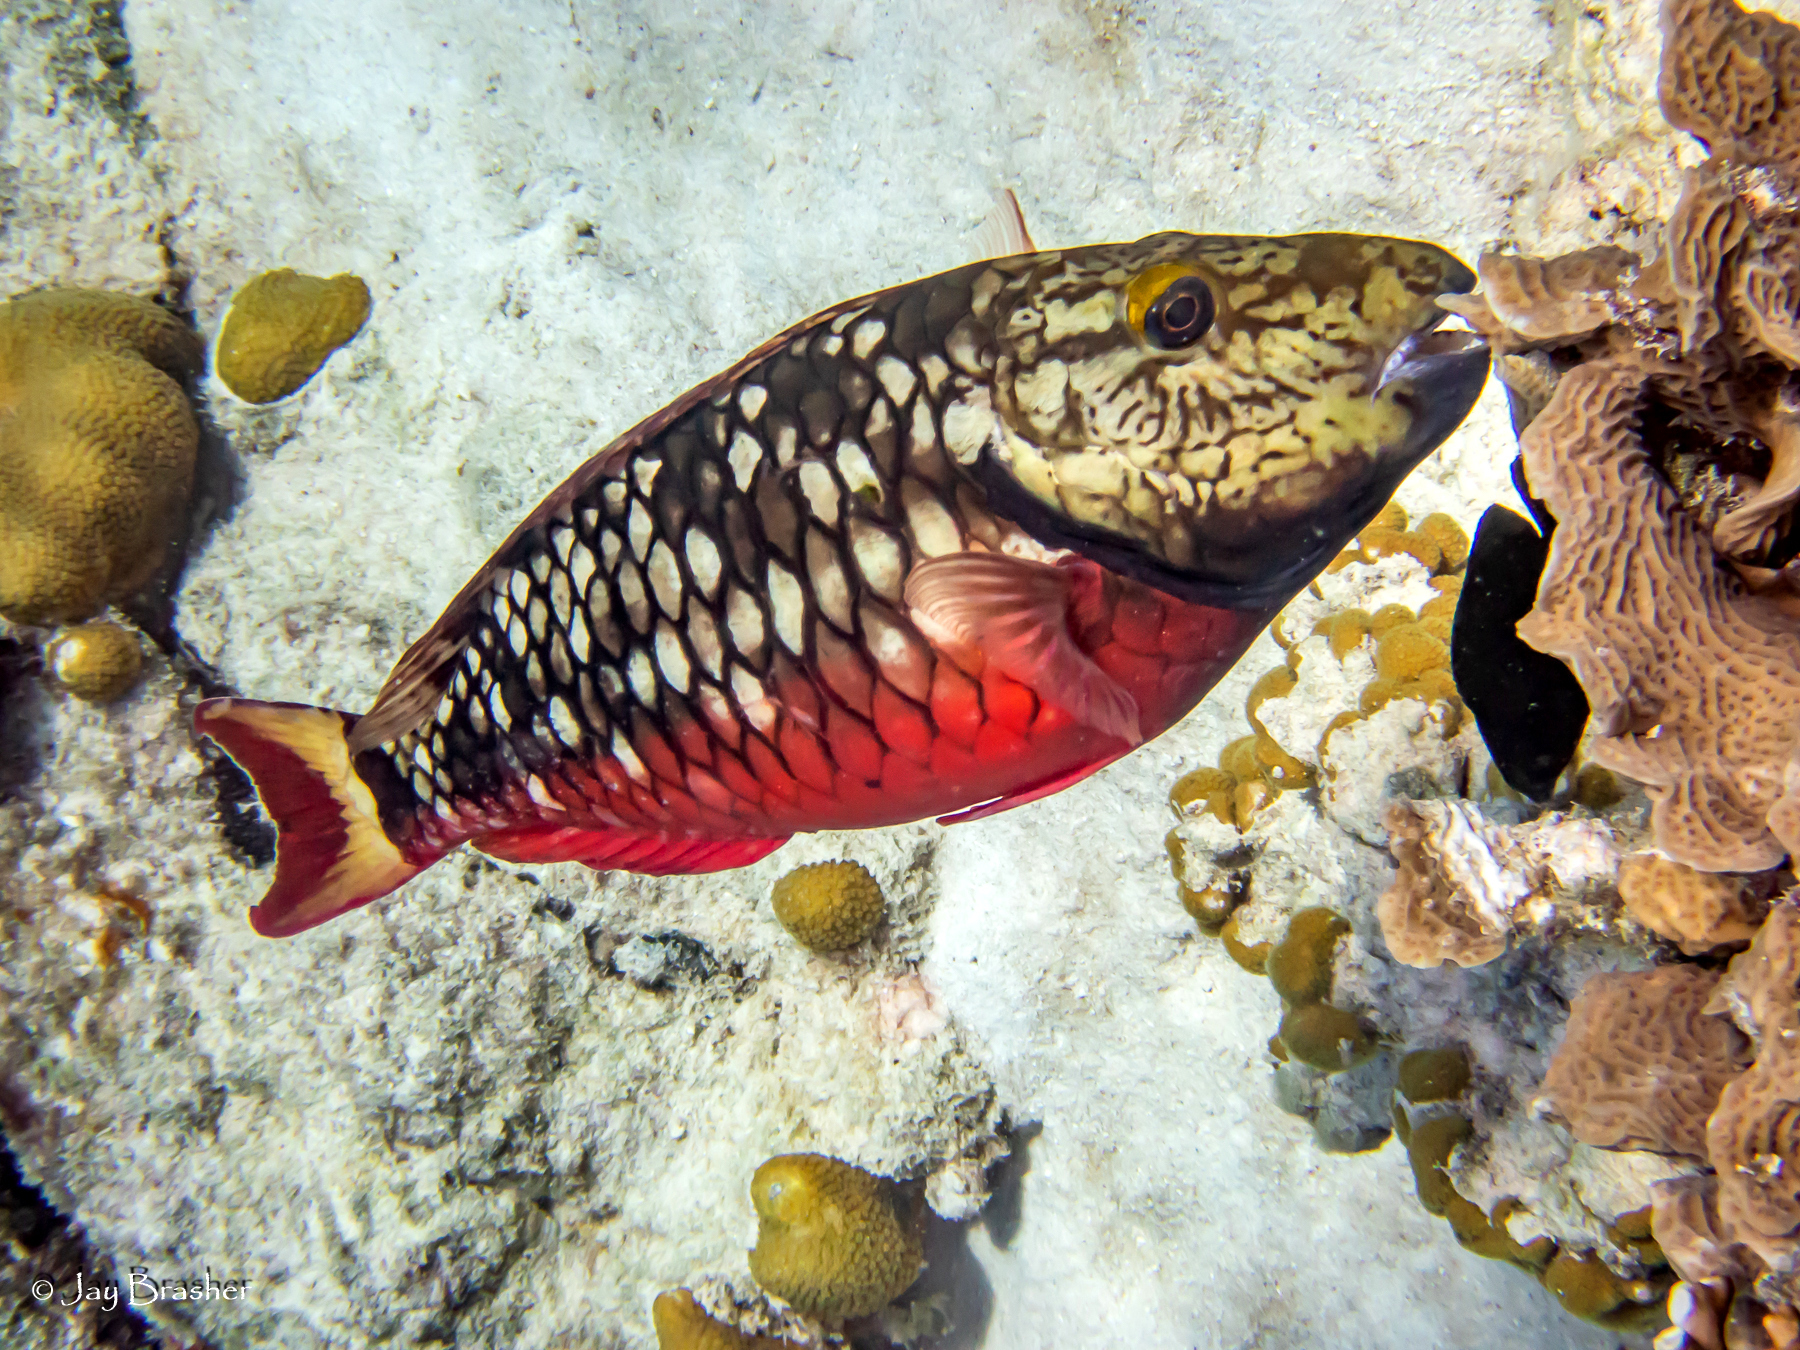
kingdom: Animalia
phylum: Chordata
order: Perciformes
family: Scaridae
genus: Sparisoma
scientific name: Sparisoma viride
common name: Stoplight parrotfish
